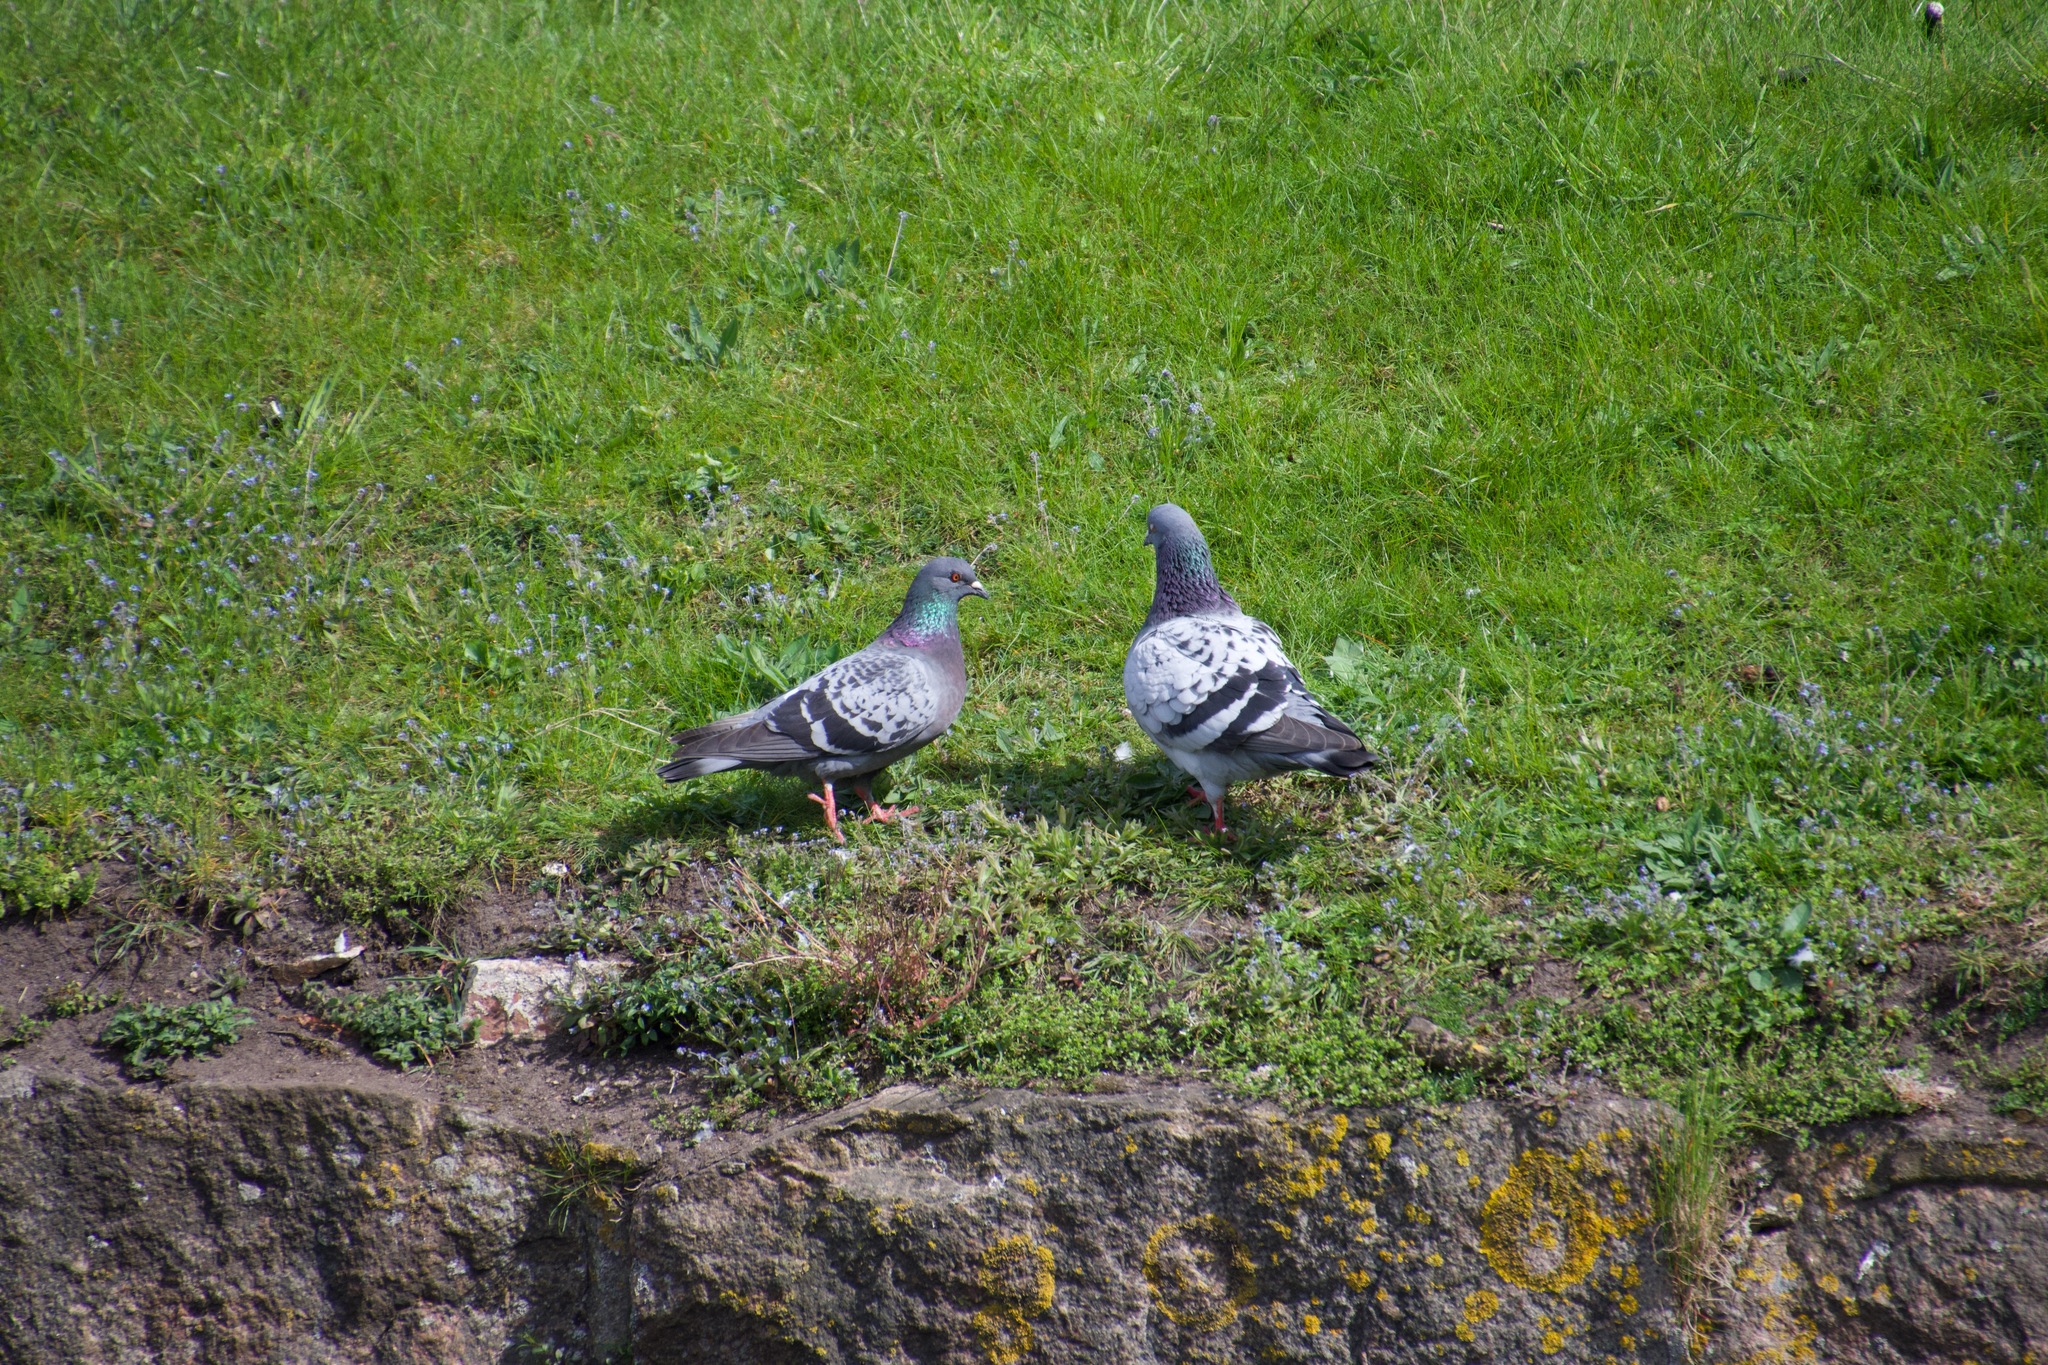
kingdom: Animalia
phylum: Chordata
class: Aves
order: Columbiformes
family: Columbidae
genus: Columba
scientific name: Columba livia
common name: Rock pigeon
